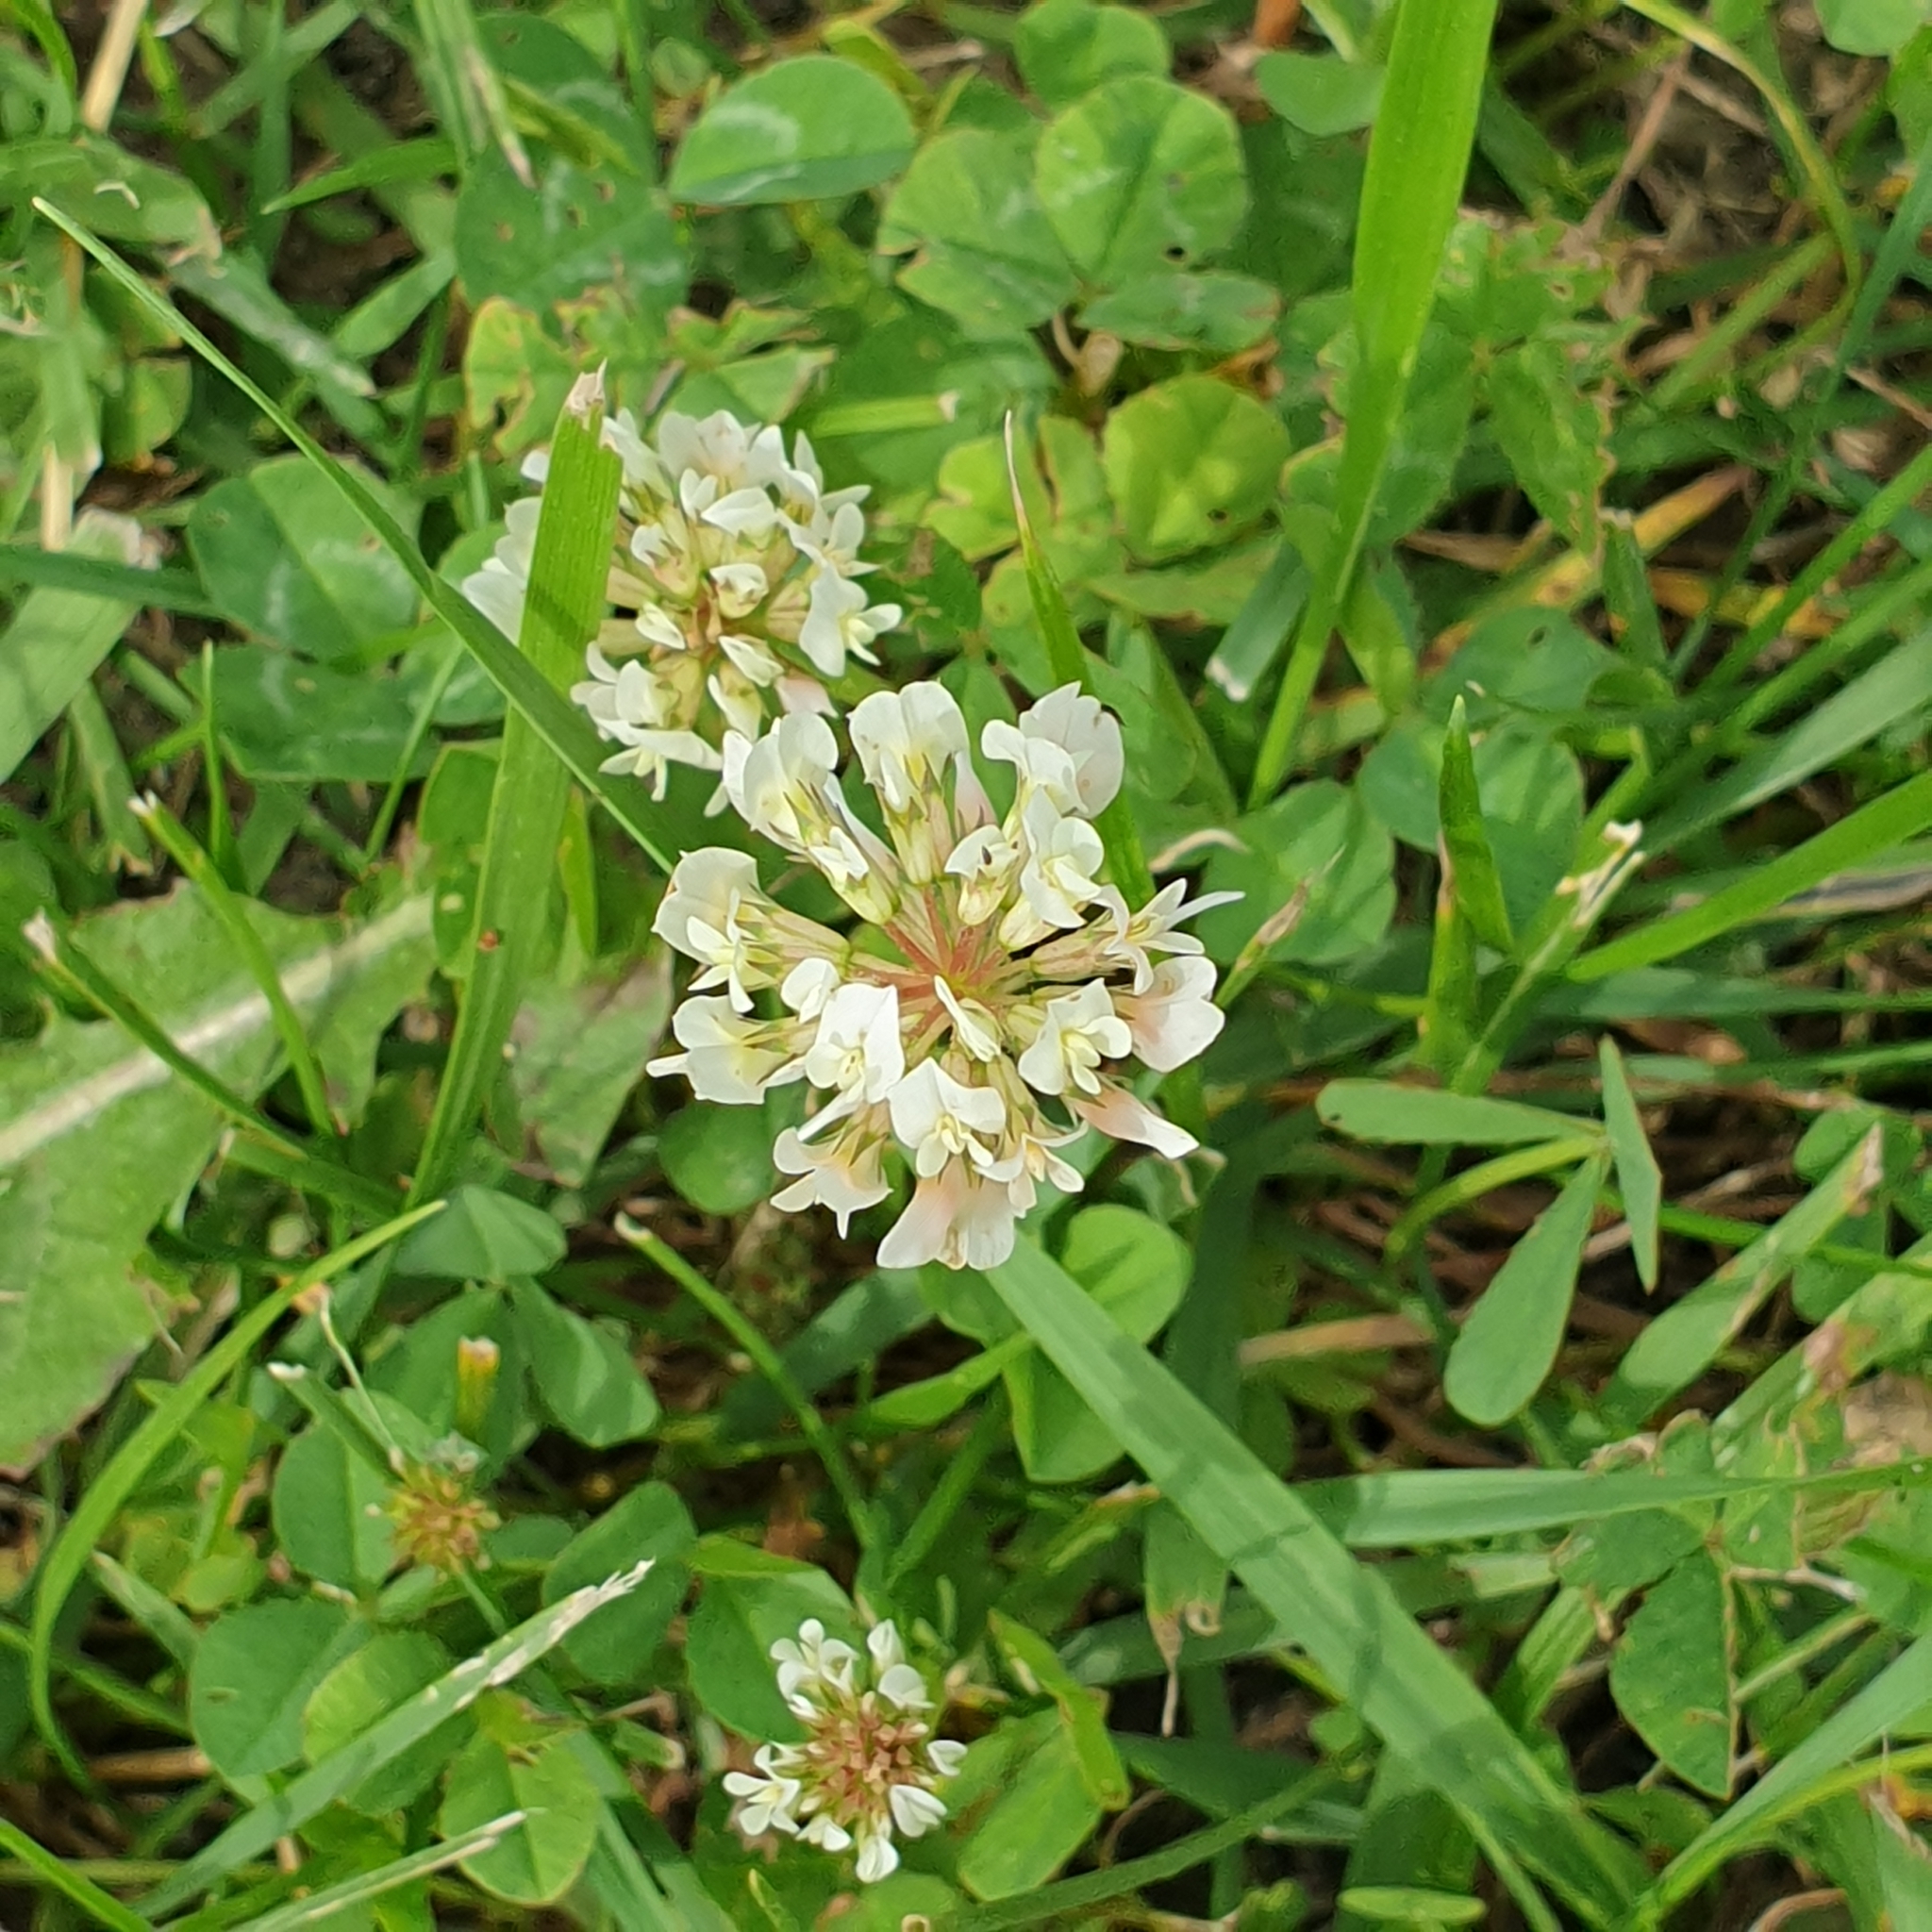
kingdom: Plantae
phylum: Tracheophyta
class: Magnoliopsida
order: Fabales
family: Fabaceae
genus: Trifolium
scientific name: Trifolium repens
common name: White clover
